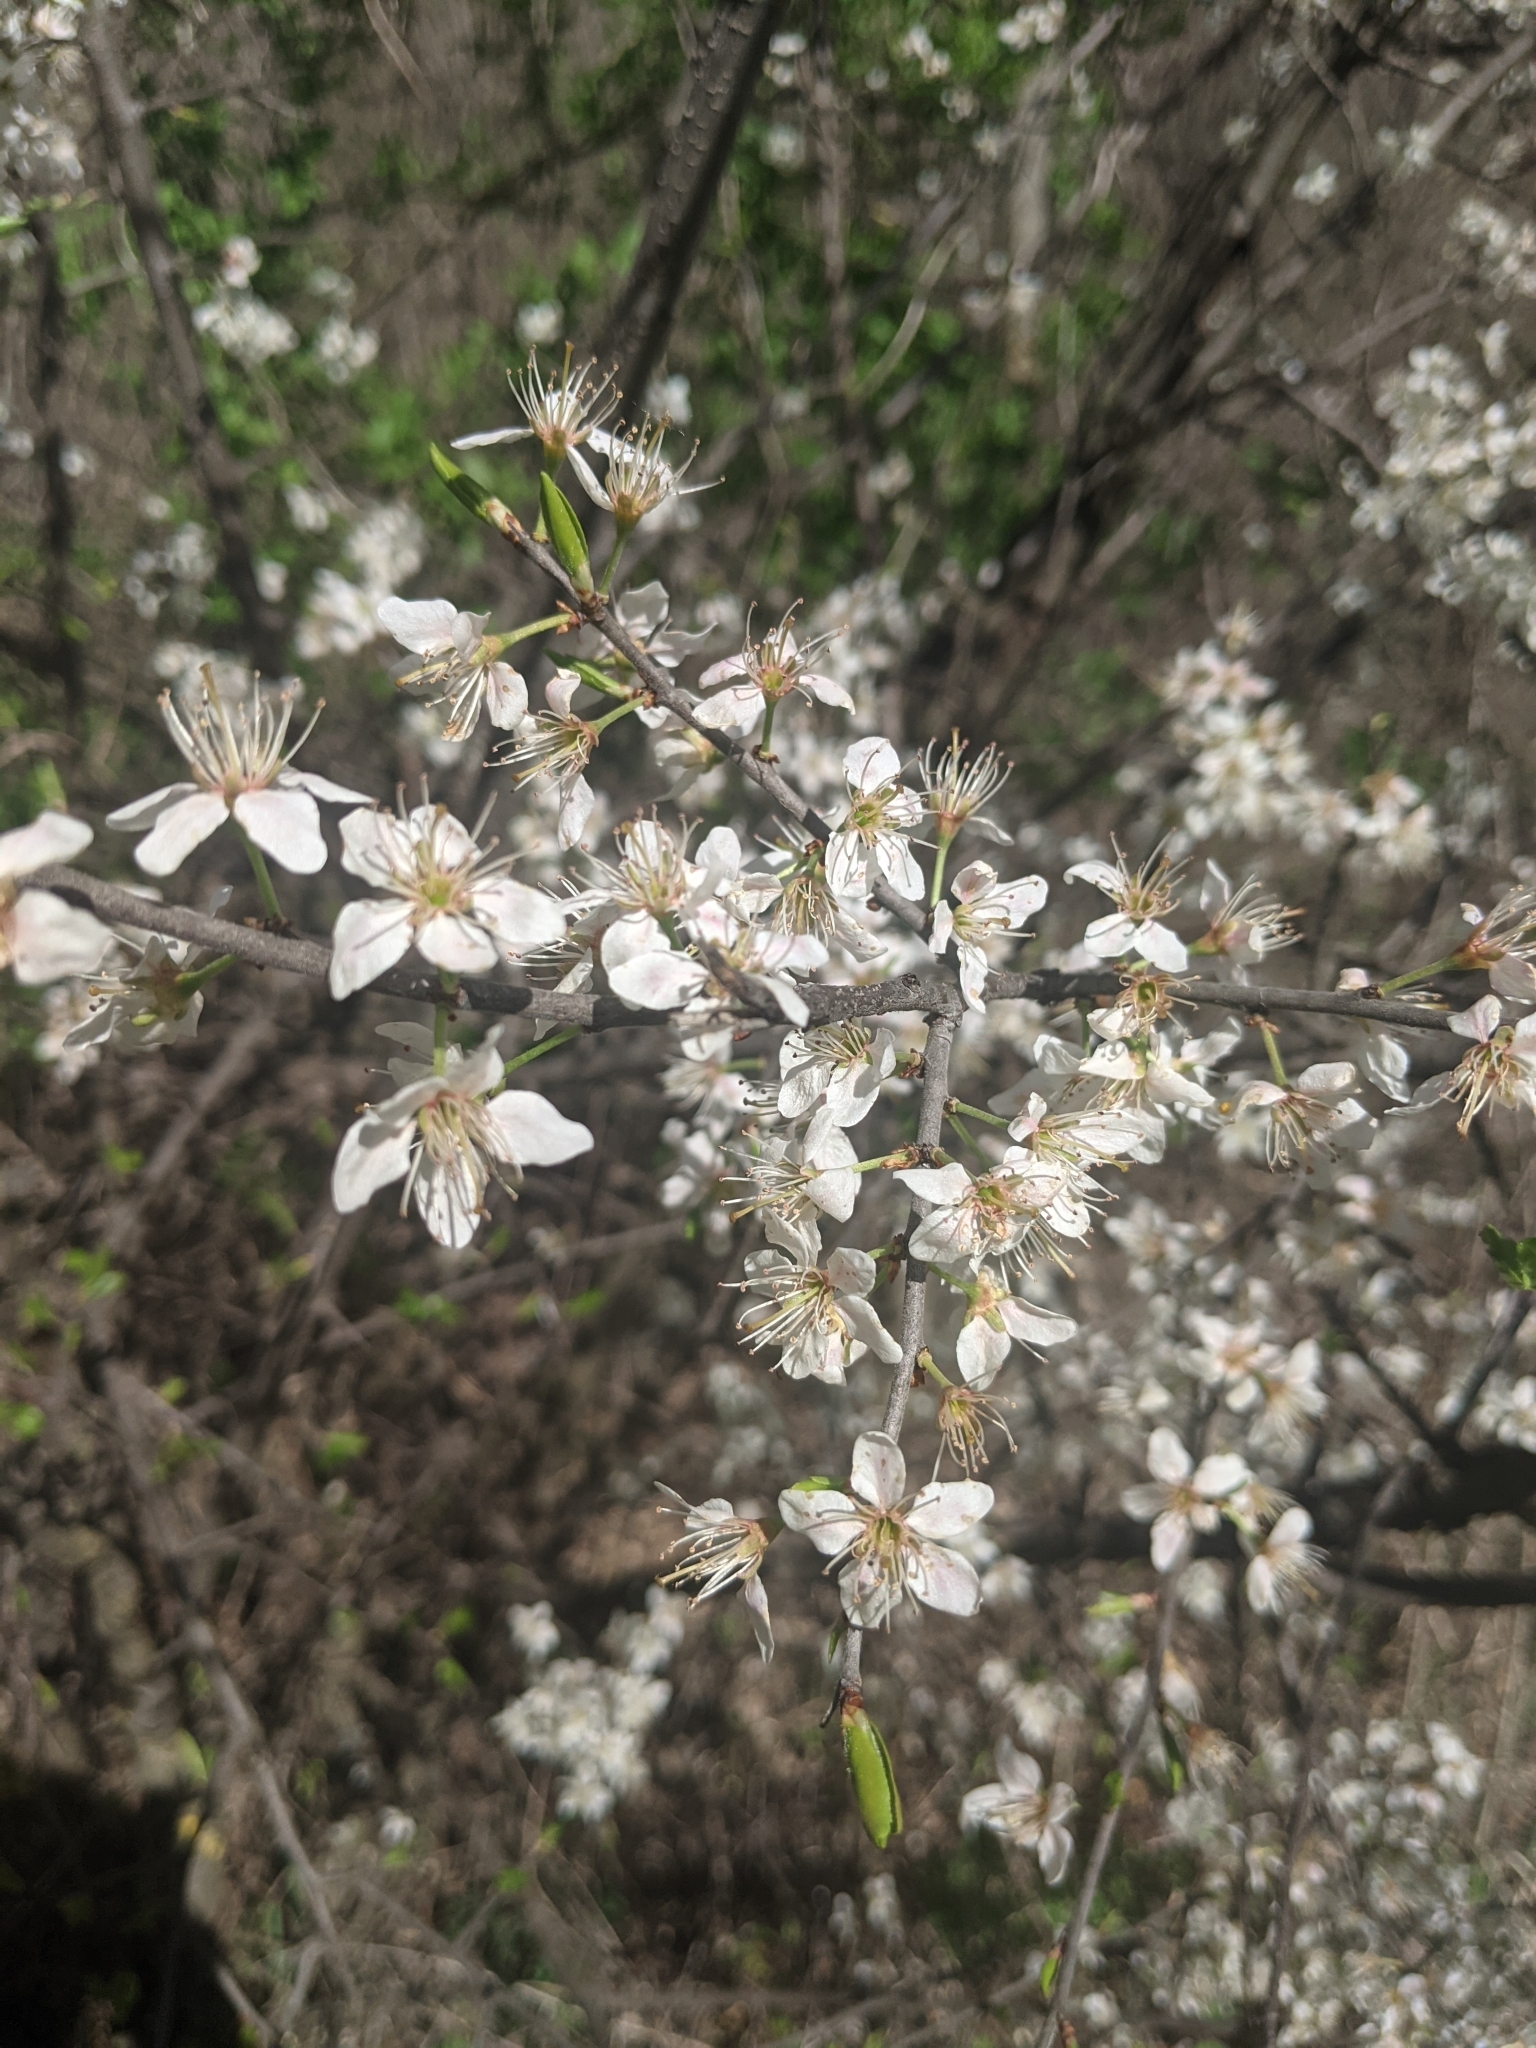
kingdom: Plantae
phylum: Tracheophyta
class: Magnoliopsida
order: Rosales
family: Rosaceae
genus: Prunus
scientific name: Prunus spinosa
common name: Blackthorn
